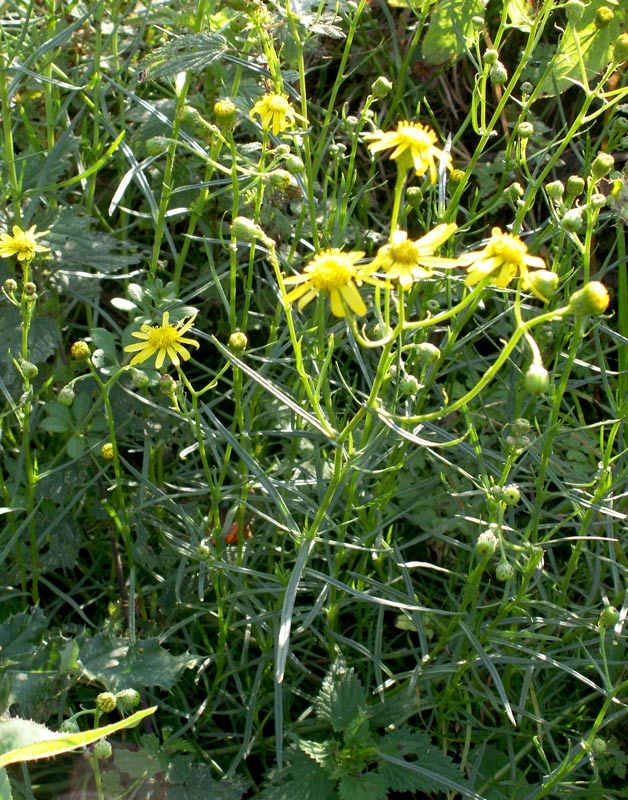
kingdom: Plantae
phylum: Tracheophyta
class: Magnoliopsida
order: Asterales
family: Asteraceae
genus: Senecio
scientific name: Senecio inaequidens
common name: Narrow-leaved ragwort
